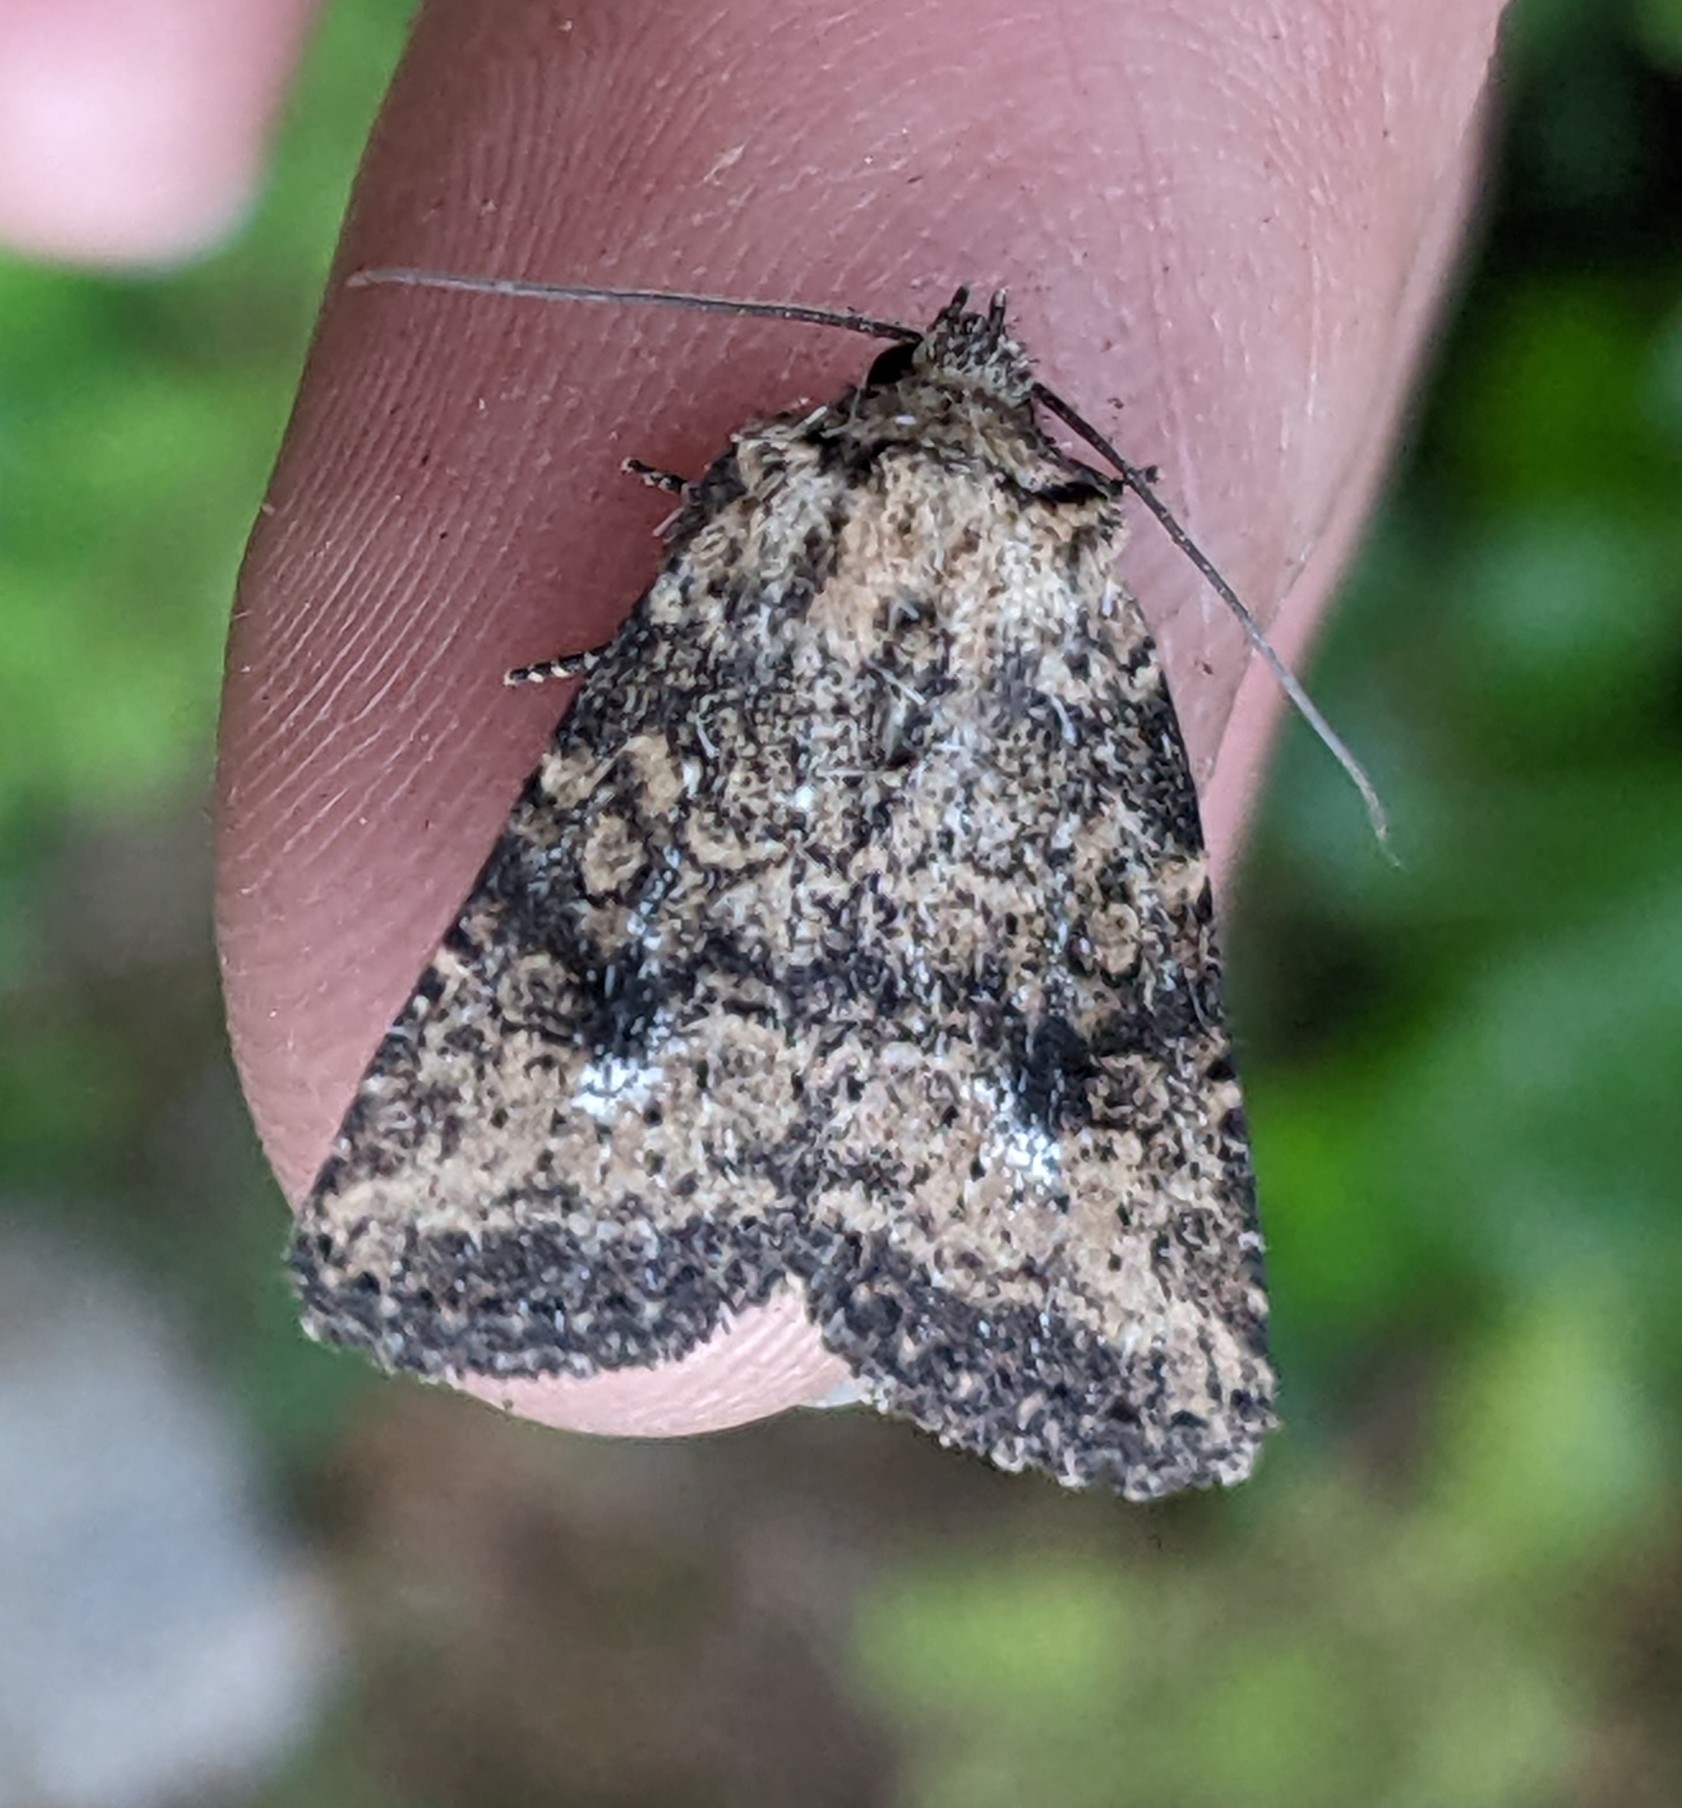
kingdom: Animalia
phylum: Arthropoda
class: Insecta
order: Lepidoptera
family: Noctuidae
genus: Homorthodes
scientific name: Homorthodes hanhami
